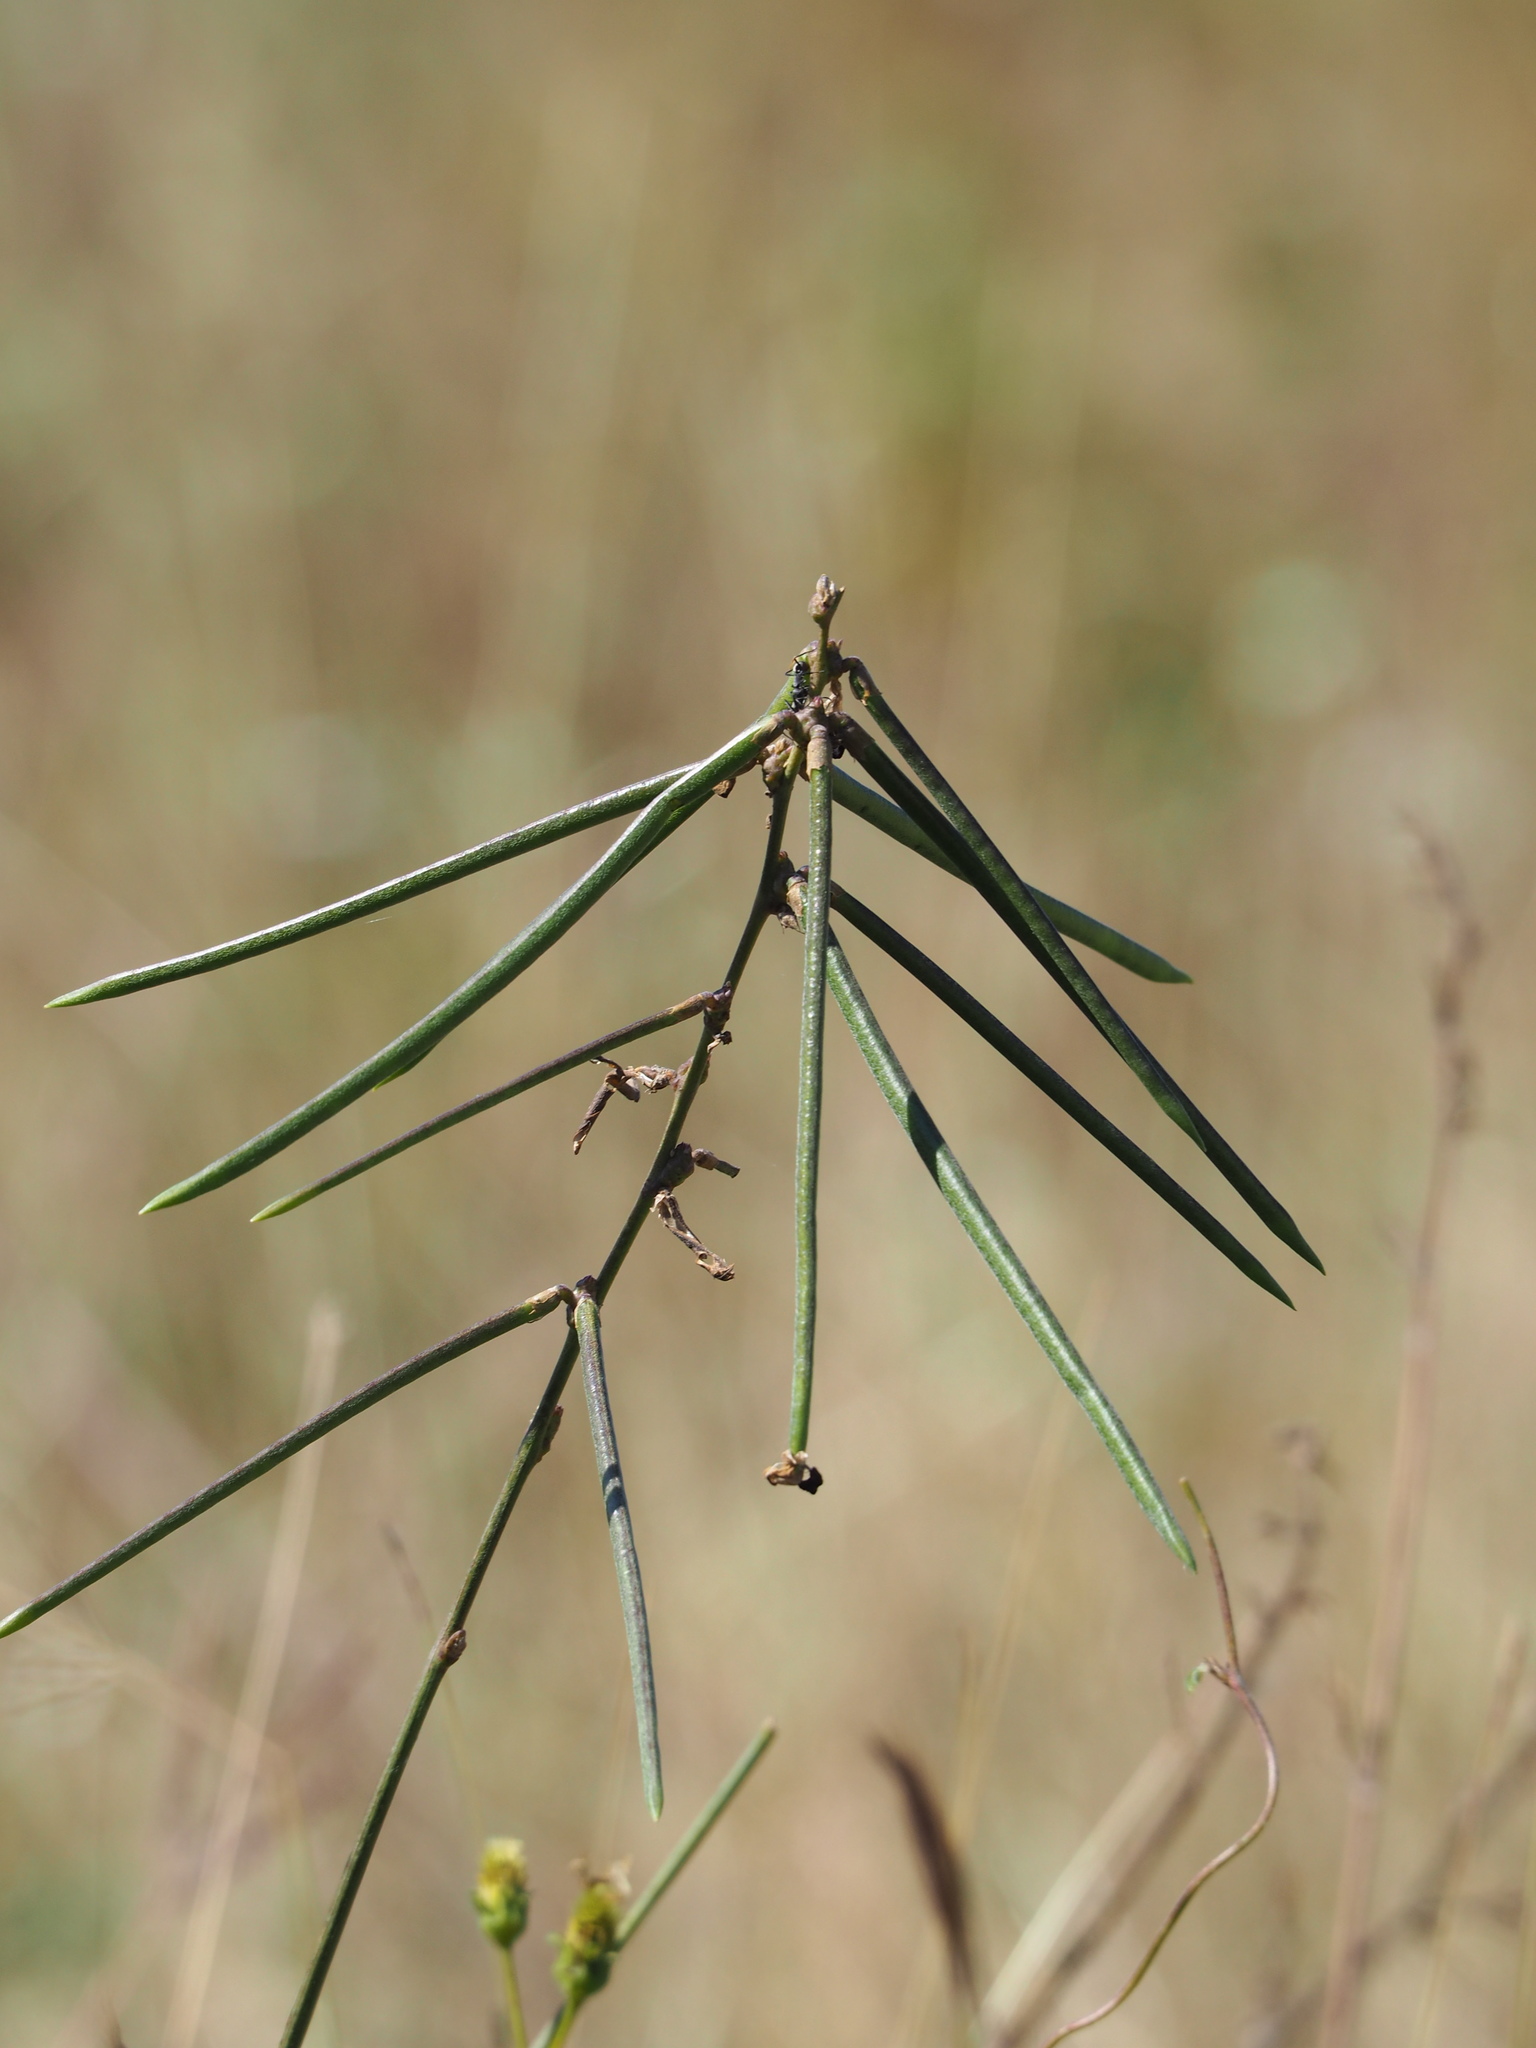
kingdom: Plantae
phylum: Tracheophyta
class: Magnoliopsida
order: Fabales
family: Fabaceae
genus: Macroptilium
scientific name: Macroptilium lathyroides
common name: Wild bushbean
